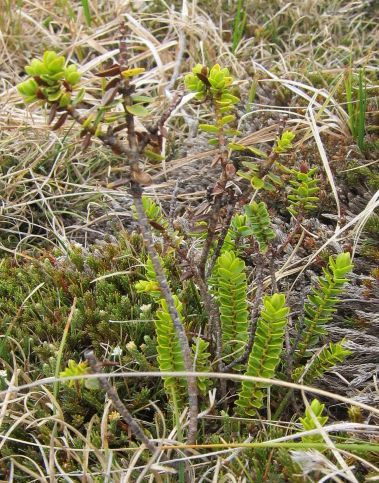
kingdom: Plantae
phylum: Tracheophyta
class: Magnoliopsida
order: Lamiales
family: Plantaginaceae
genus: Veronica
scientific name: Veronica odora
